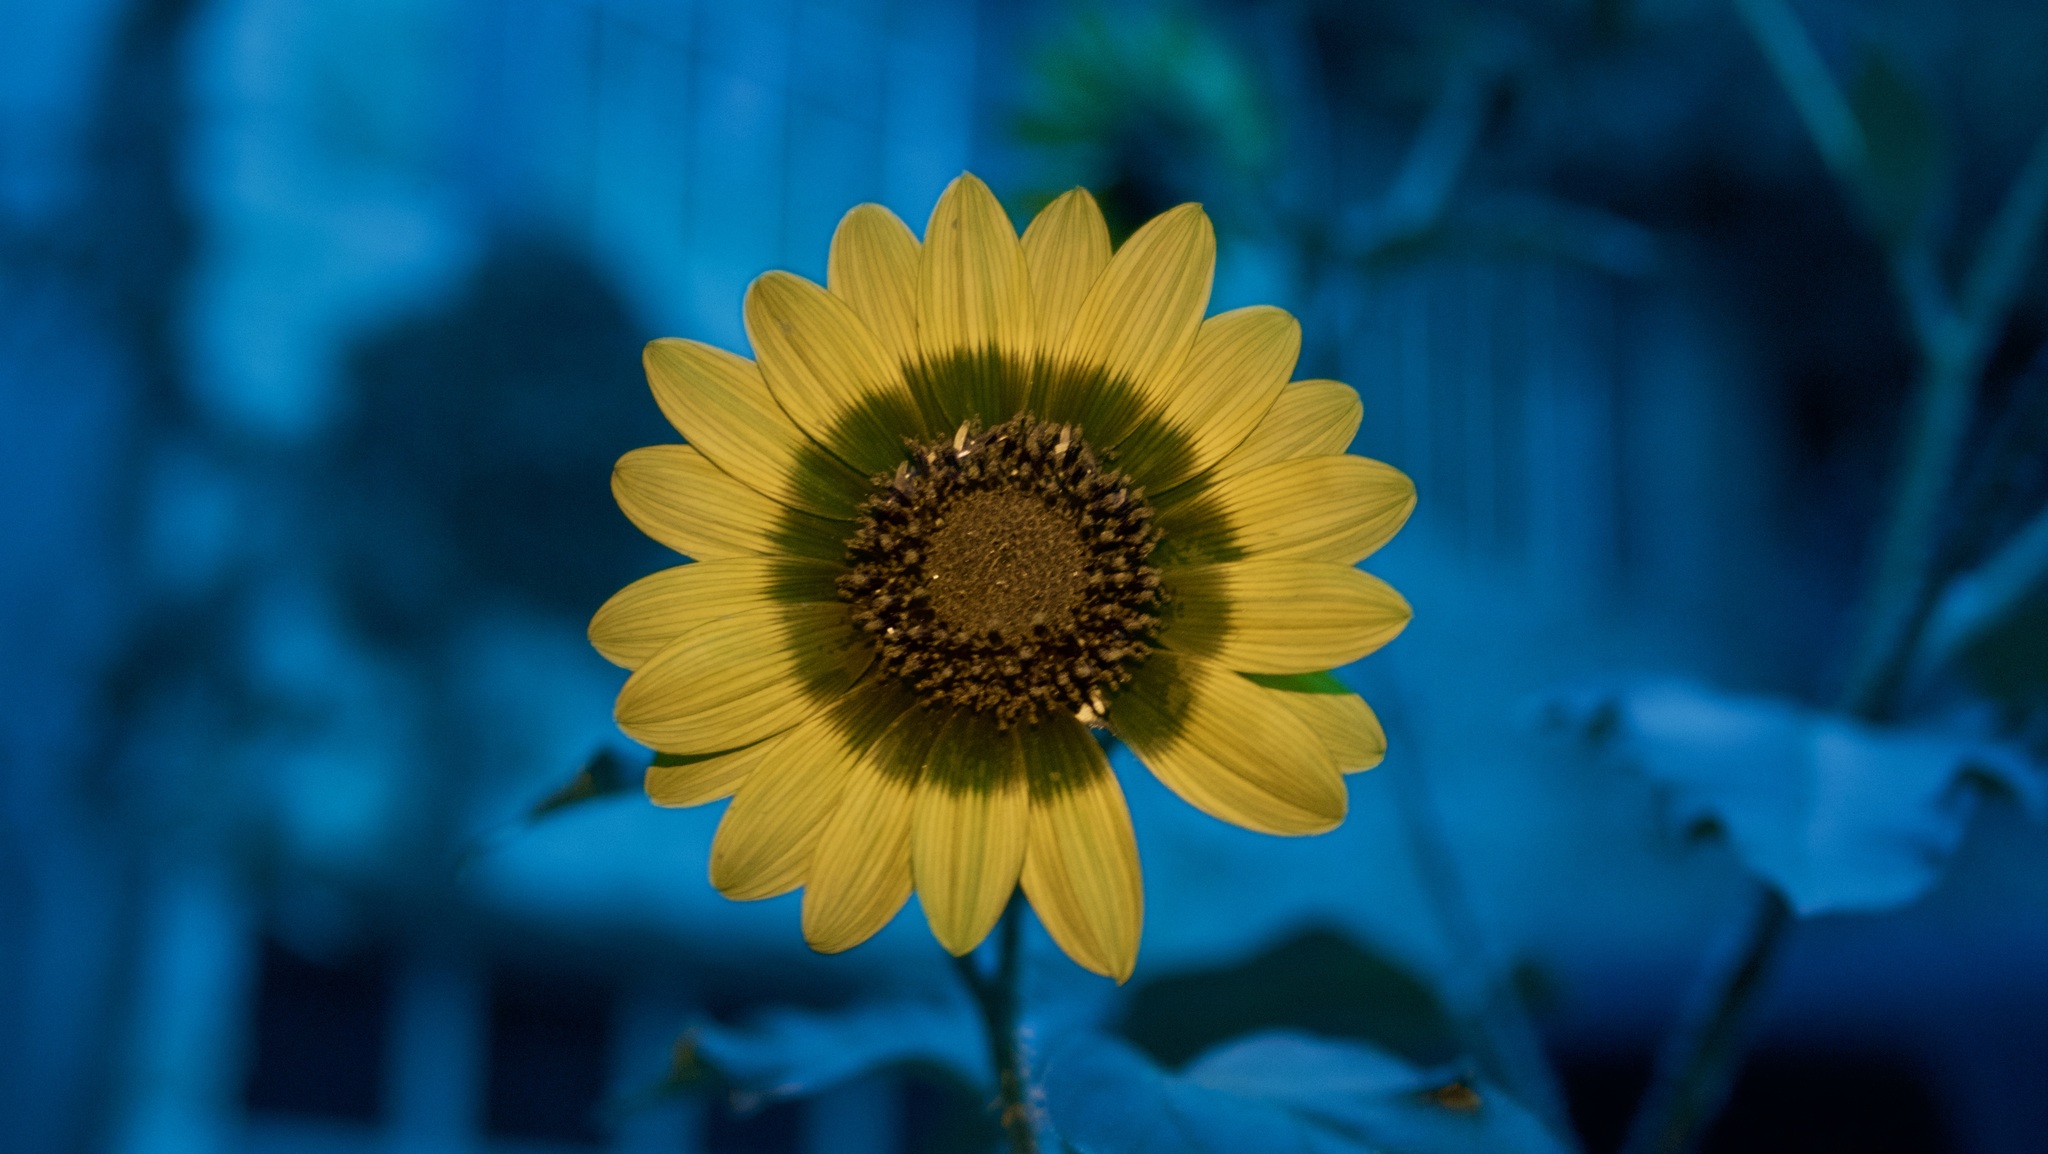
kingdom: Plantae
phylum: Tracheophyta
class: Magnoliopsida
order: Asterales
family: Asteraceae
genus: Helianthus
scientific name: Helianthus annuus
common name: Sunflower
